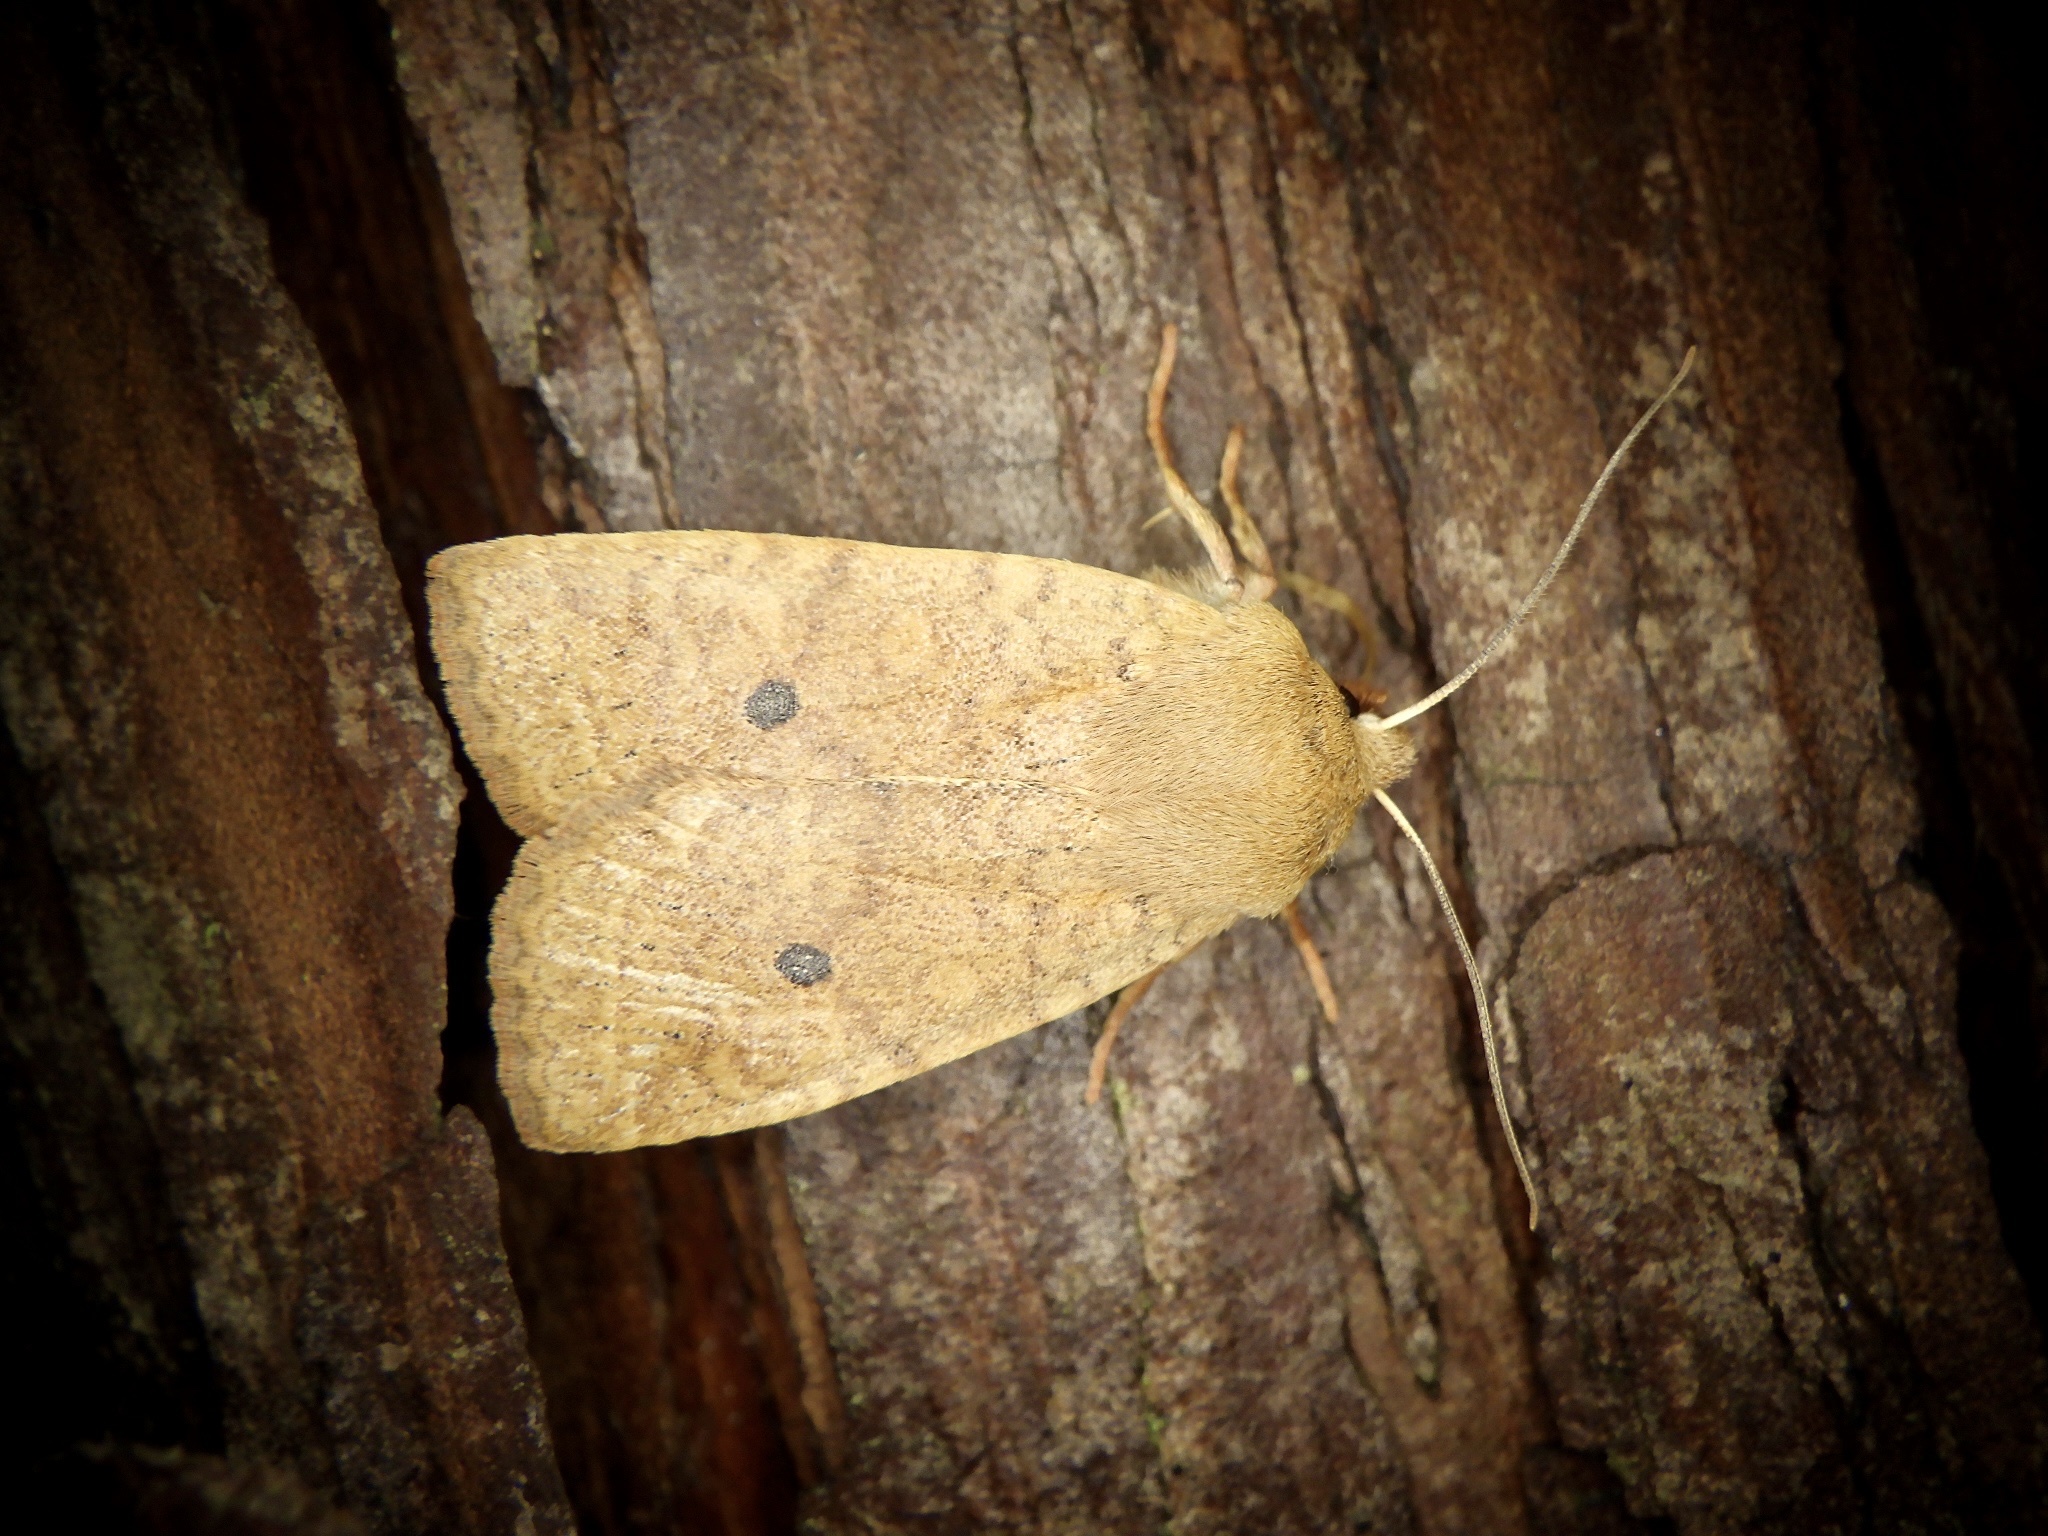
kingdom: Animalia
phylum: Arthropoda
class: Insecta
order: Lepidoptera
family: Noctuidae
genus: Conistra
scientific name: Conistra albipuncta
